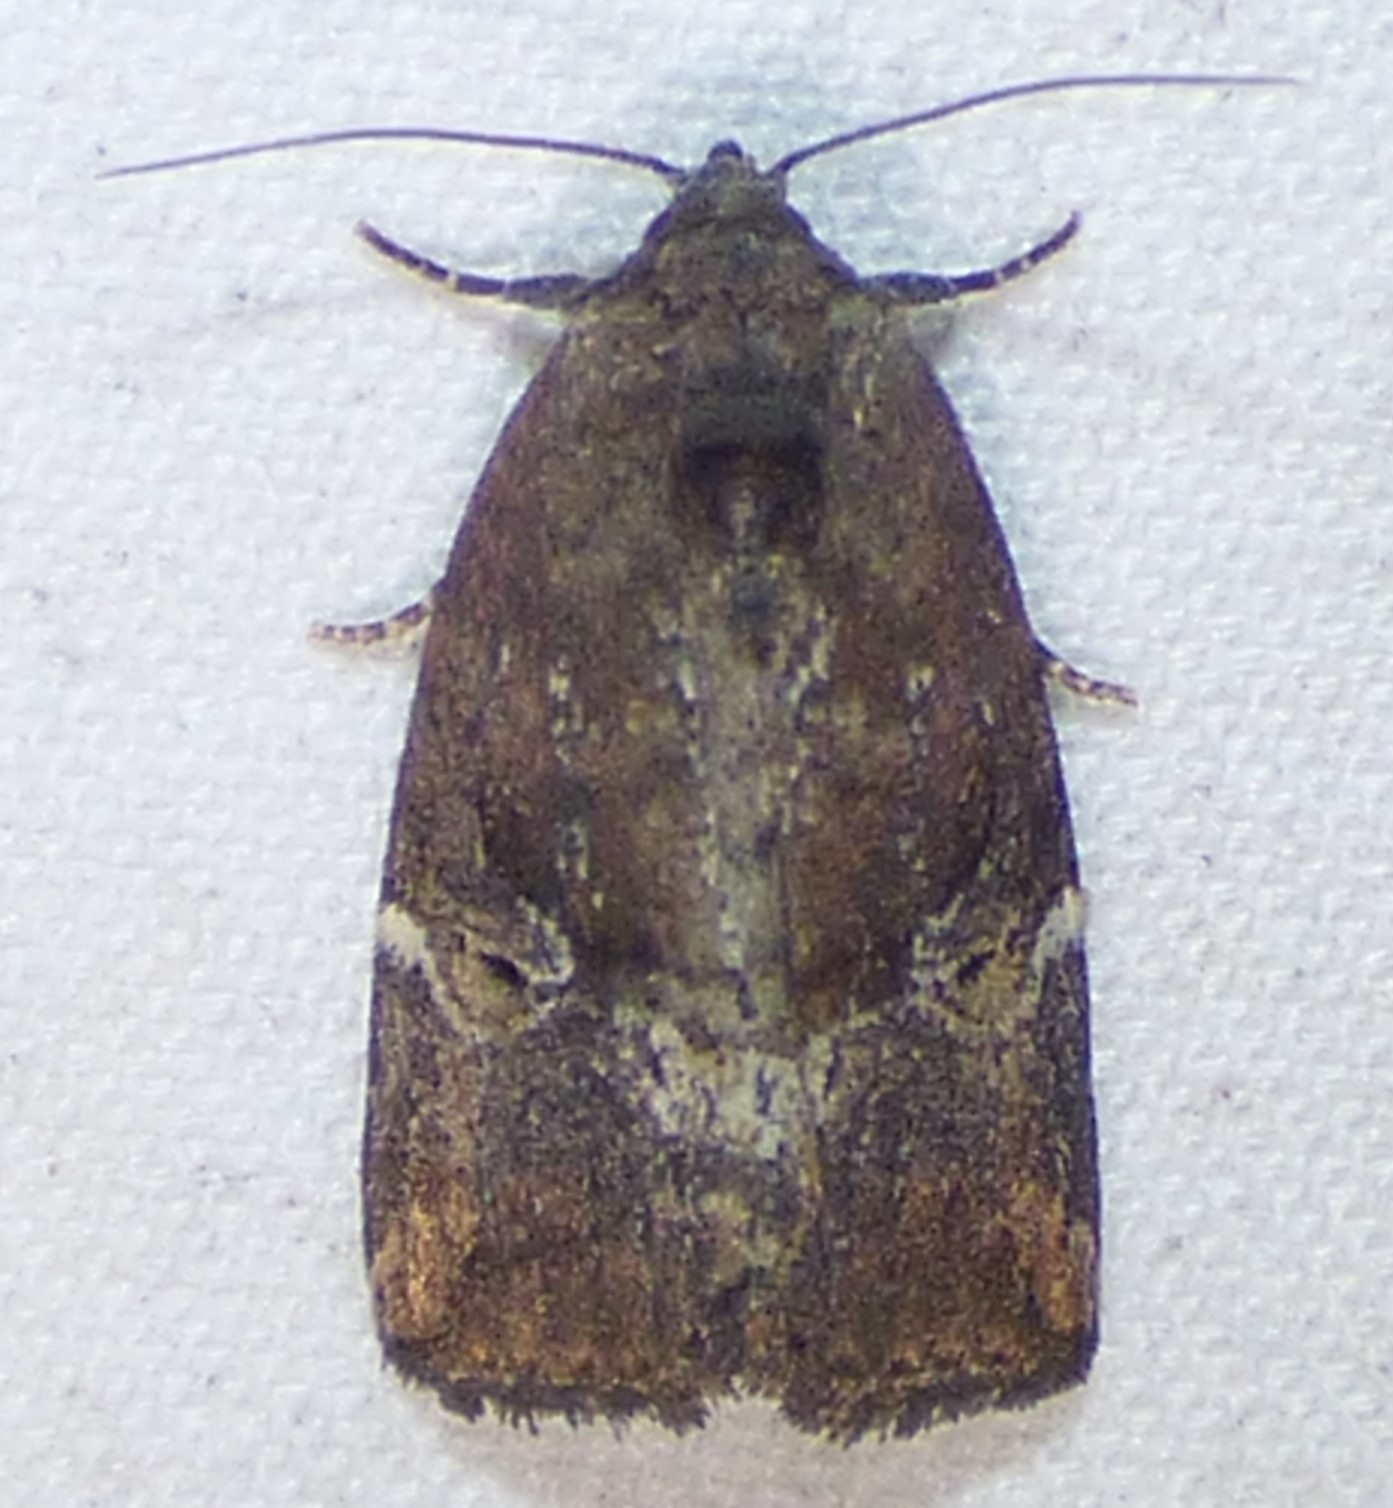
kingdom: Animalia
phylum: Arthropoda
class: Insecta
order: Lepidoptera
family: Noctuidae
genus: Elaphria
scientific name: Elaphria versicolor
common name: Fir harlequin
